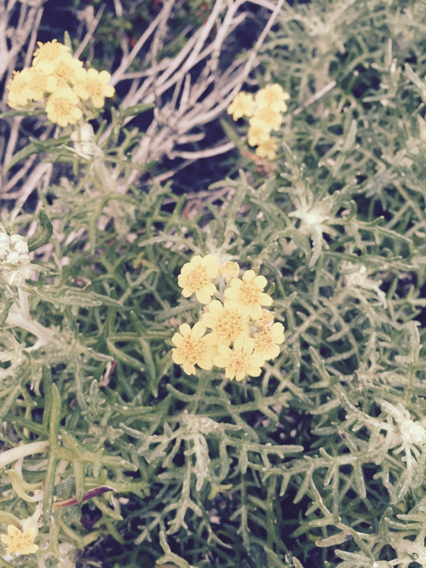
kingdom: Plantae
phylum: Tracheophyta
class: Magnoliopsida
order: Asterales
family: Asteraceae
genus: Eriophyllum
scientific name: Eriophyllum staechadifolium
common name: Lizardtail
